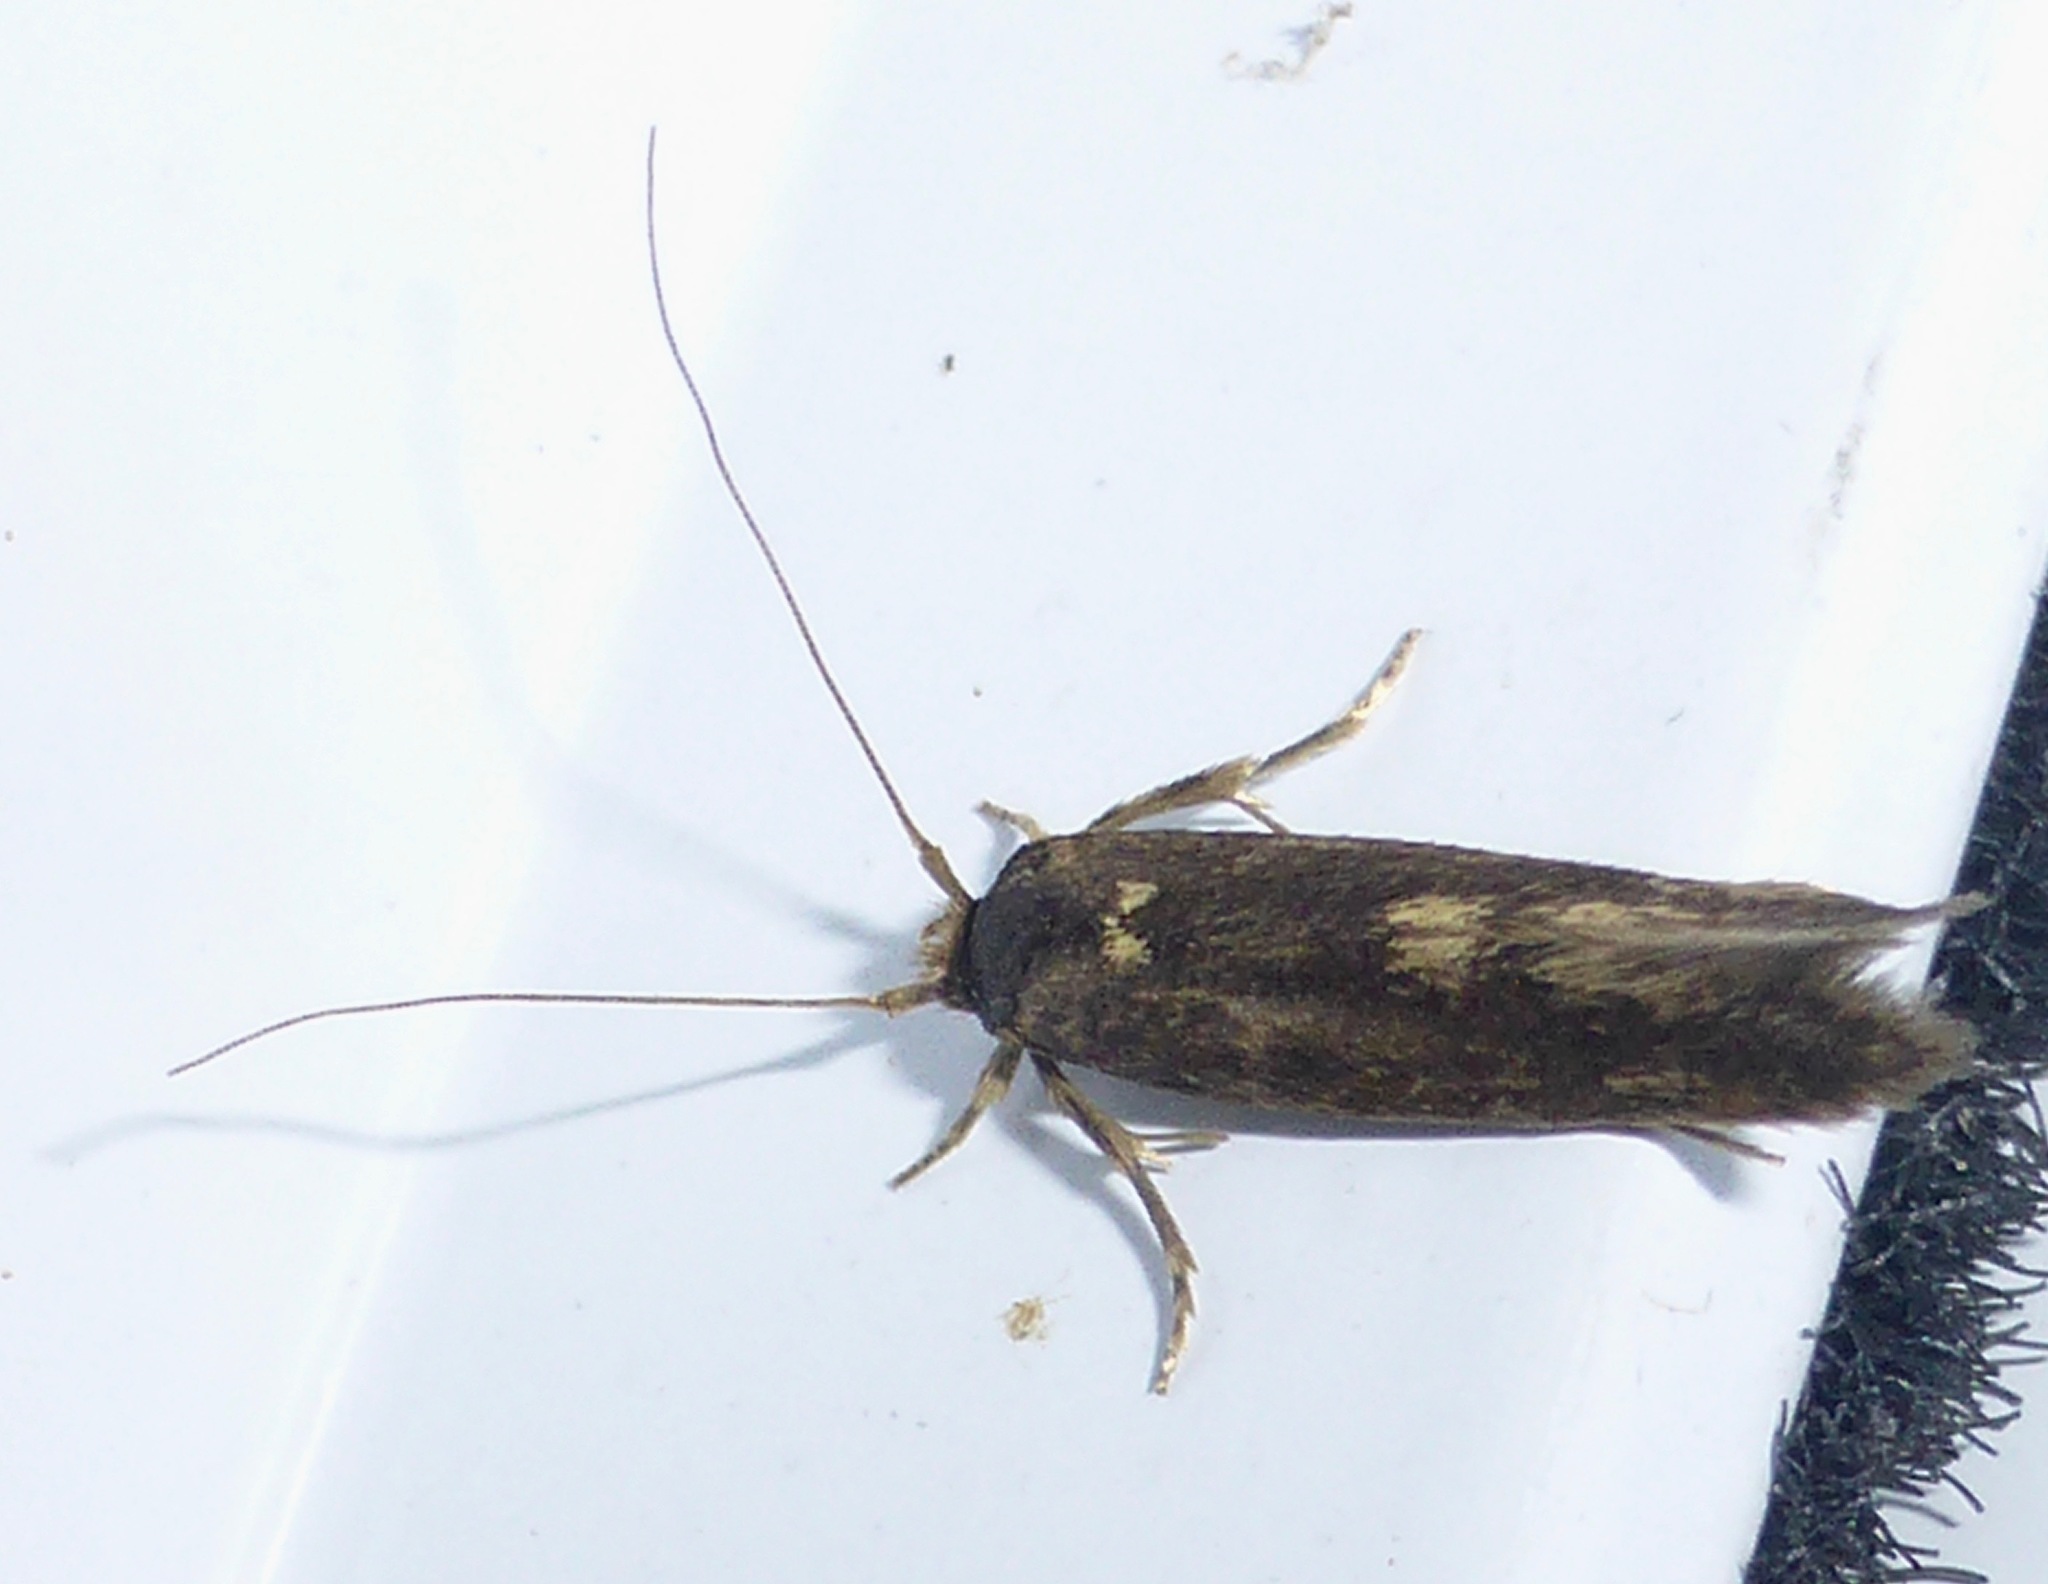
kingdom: Animalia
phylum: Arthropoda
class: Insecta
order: Lepidoptera
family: Tineidae
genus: Opogona
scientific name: Opogona omoscopa
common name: Moth
